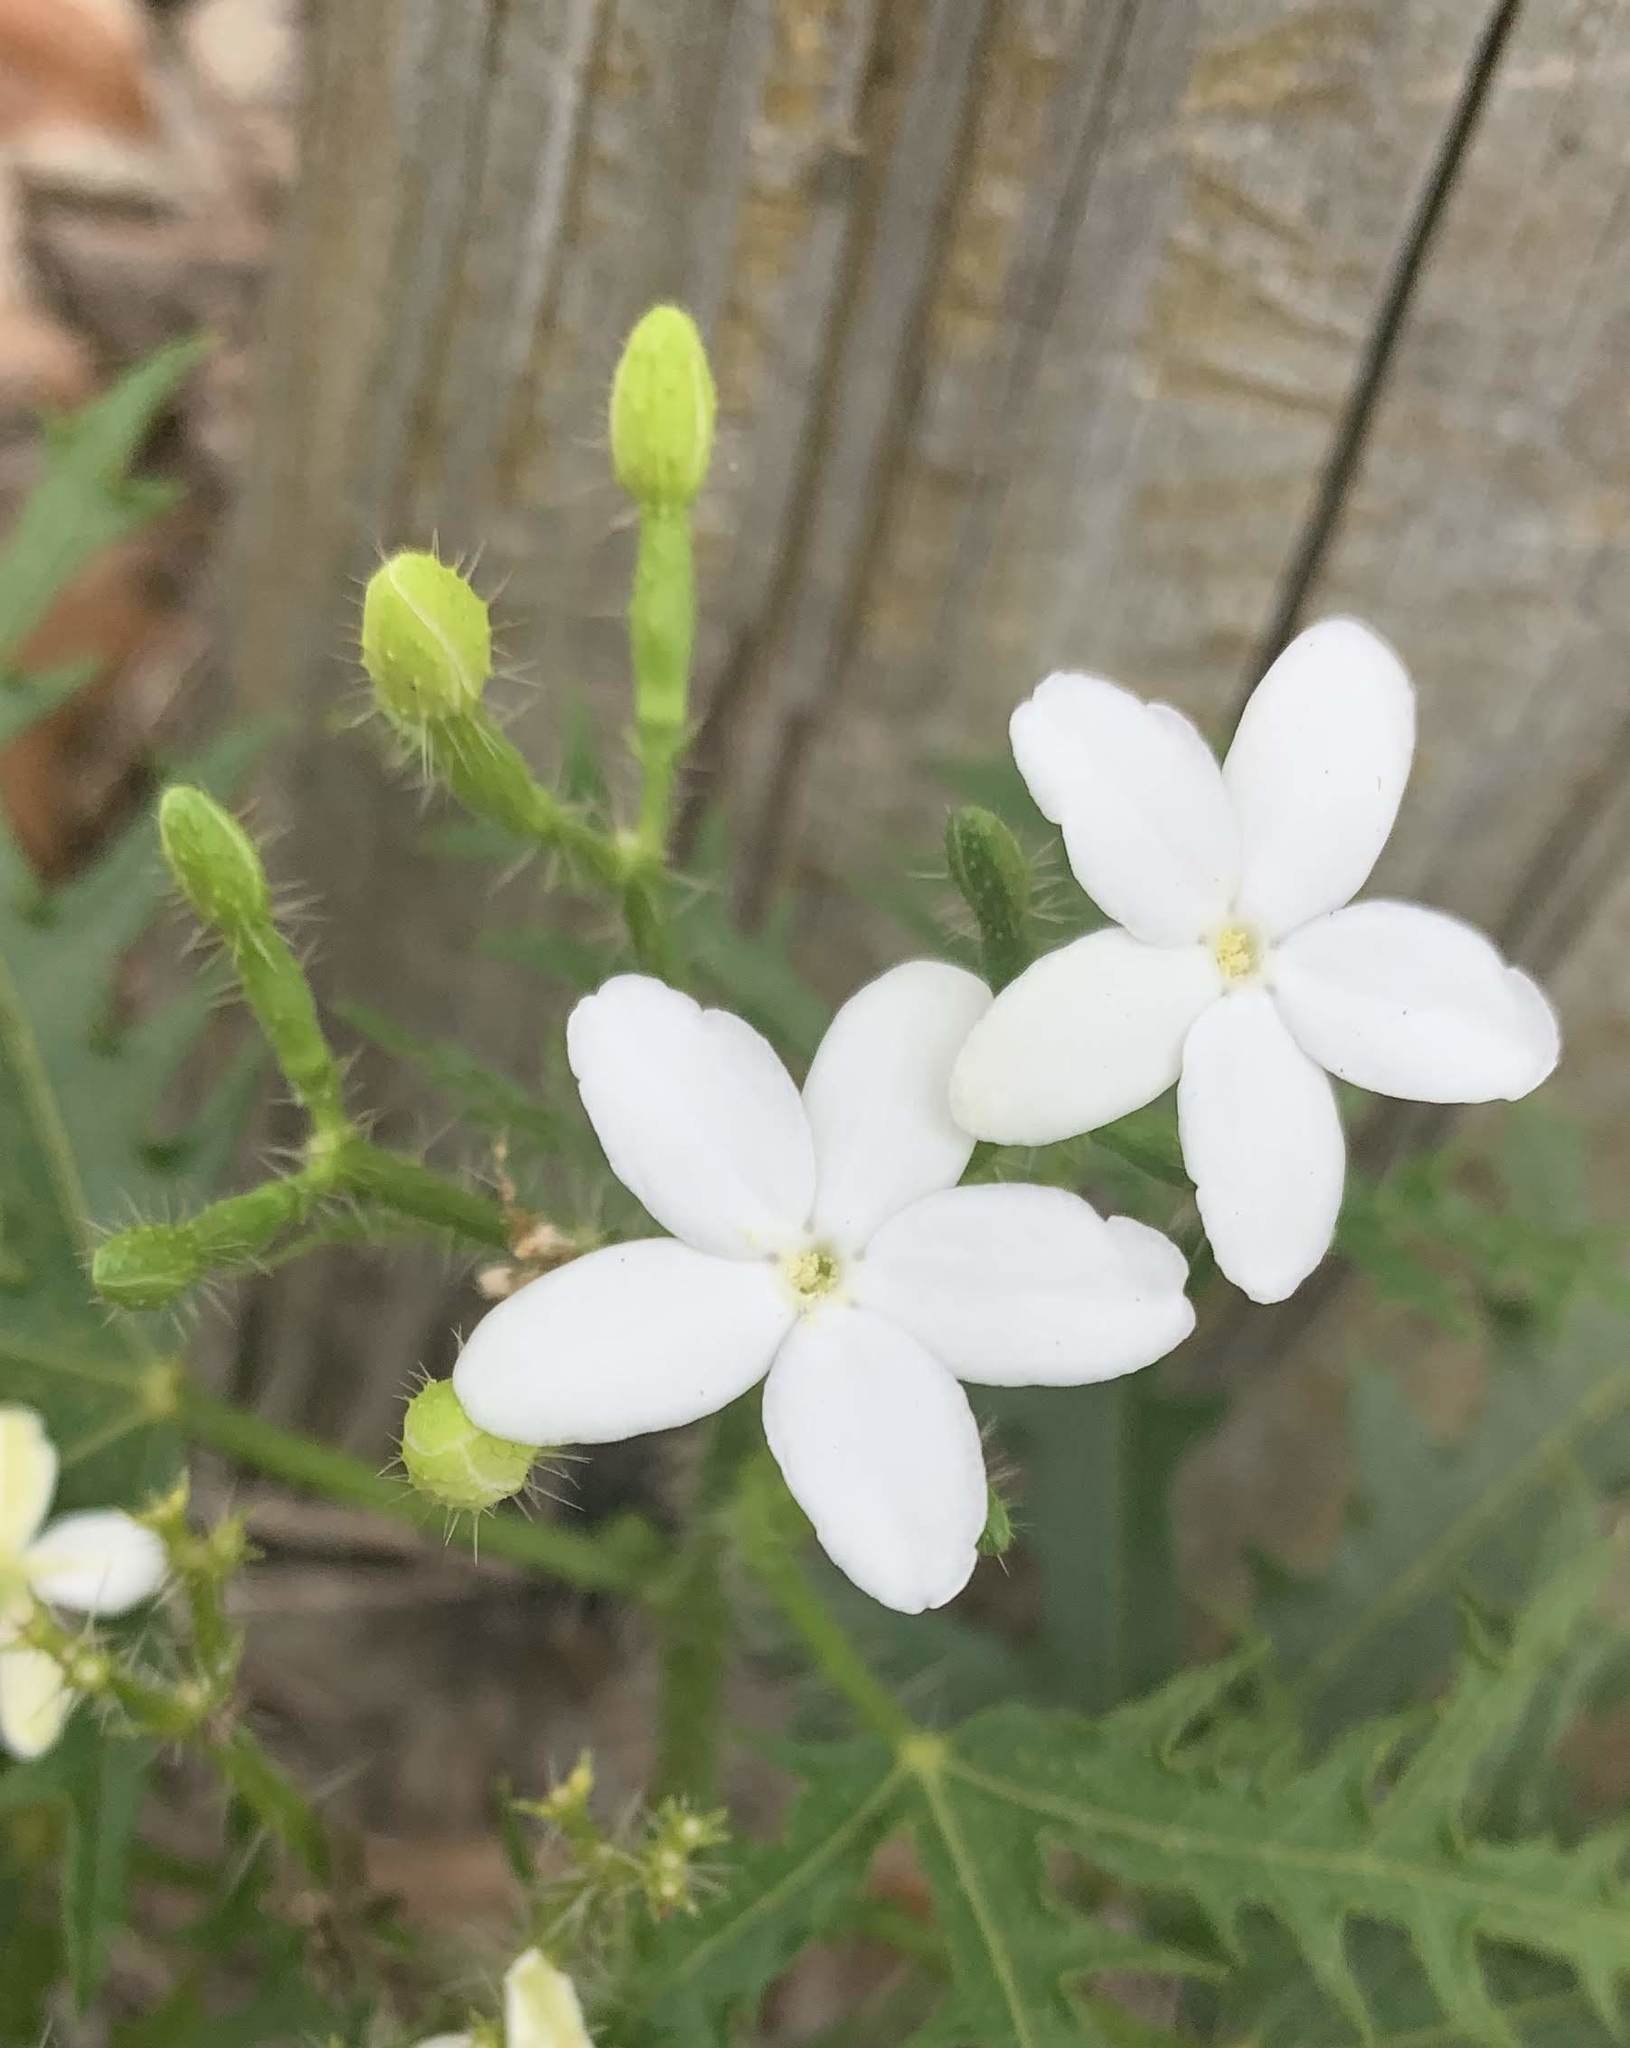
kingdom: Plantae
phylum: Tracheophyta
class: Magnoliopsida
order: Malpighiales
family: Euphorbiaceae
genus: Cnidoscolus
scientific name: Cnidoscolus stimulosus
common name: Bull-nettle
